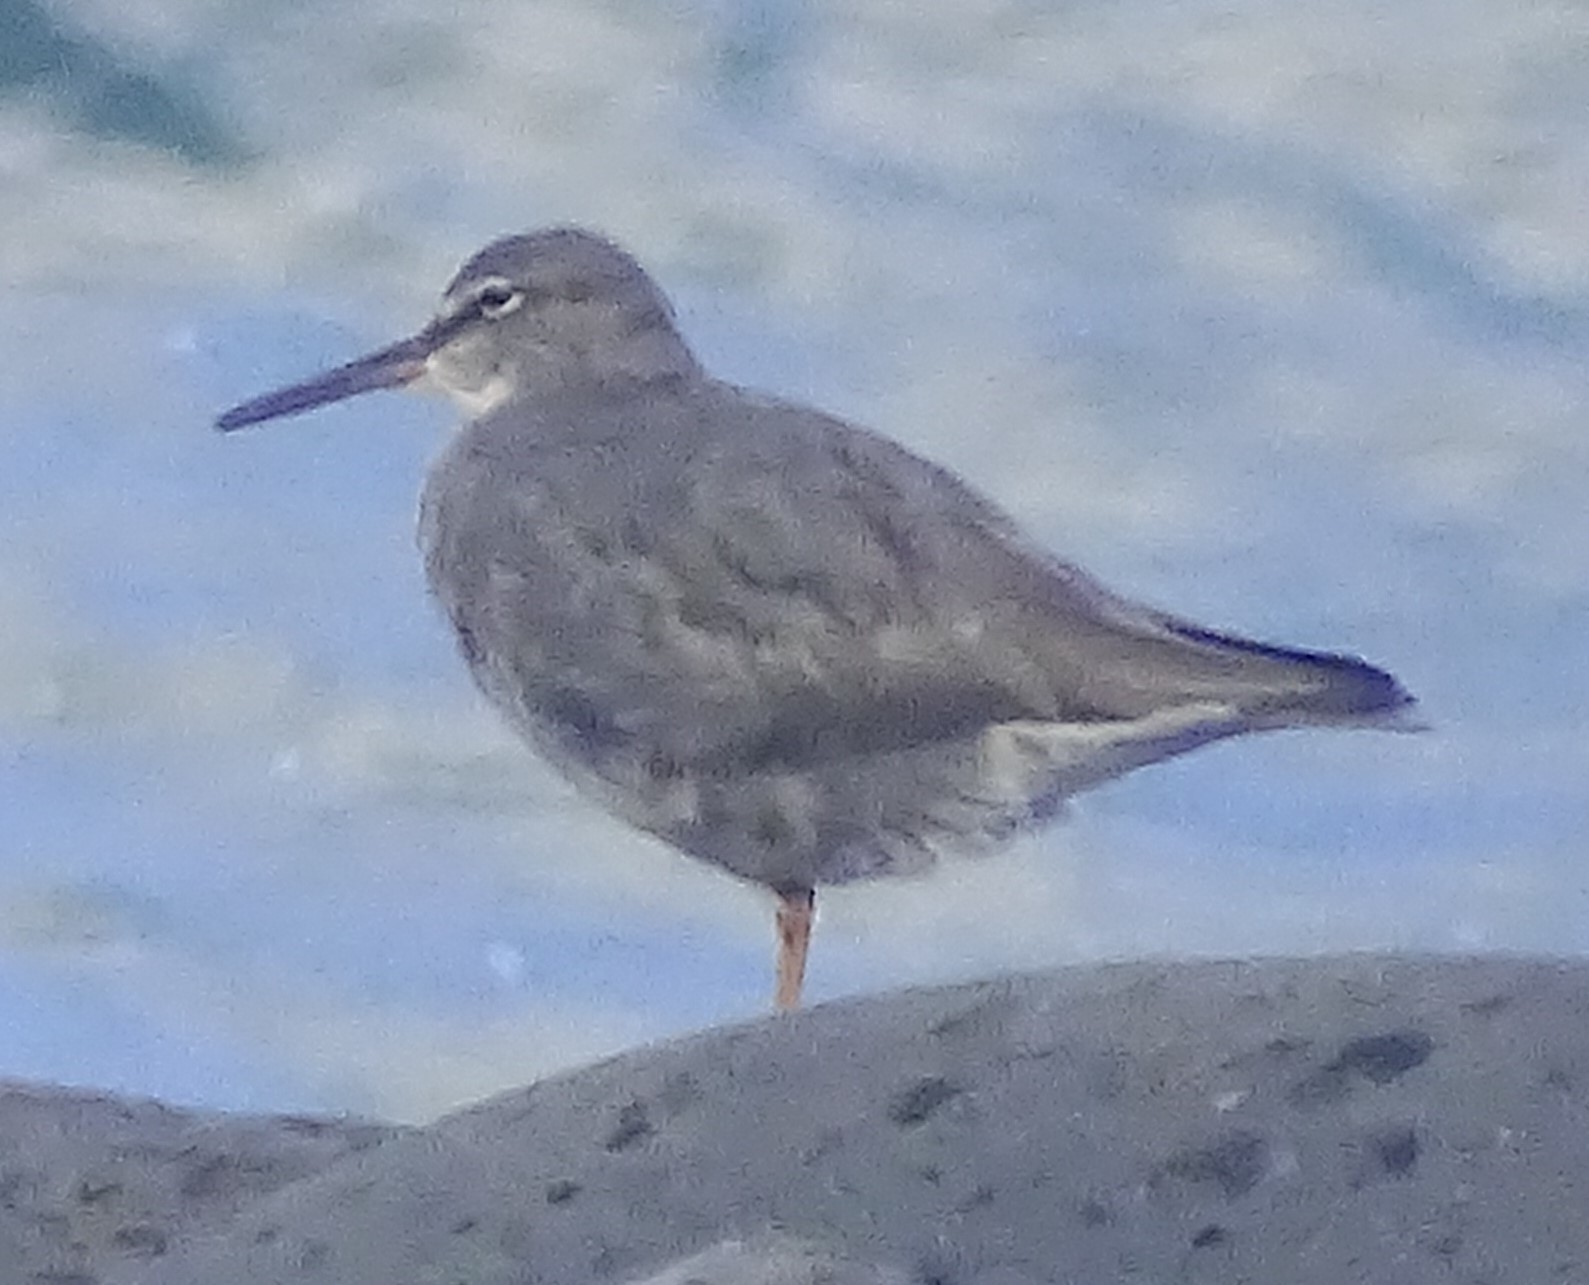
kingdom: Animalia
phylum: Chordata
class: Aves
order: Charadriiformes
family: Scolopacidae
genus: Tringa
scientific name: Tringa incana
